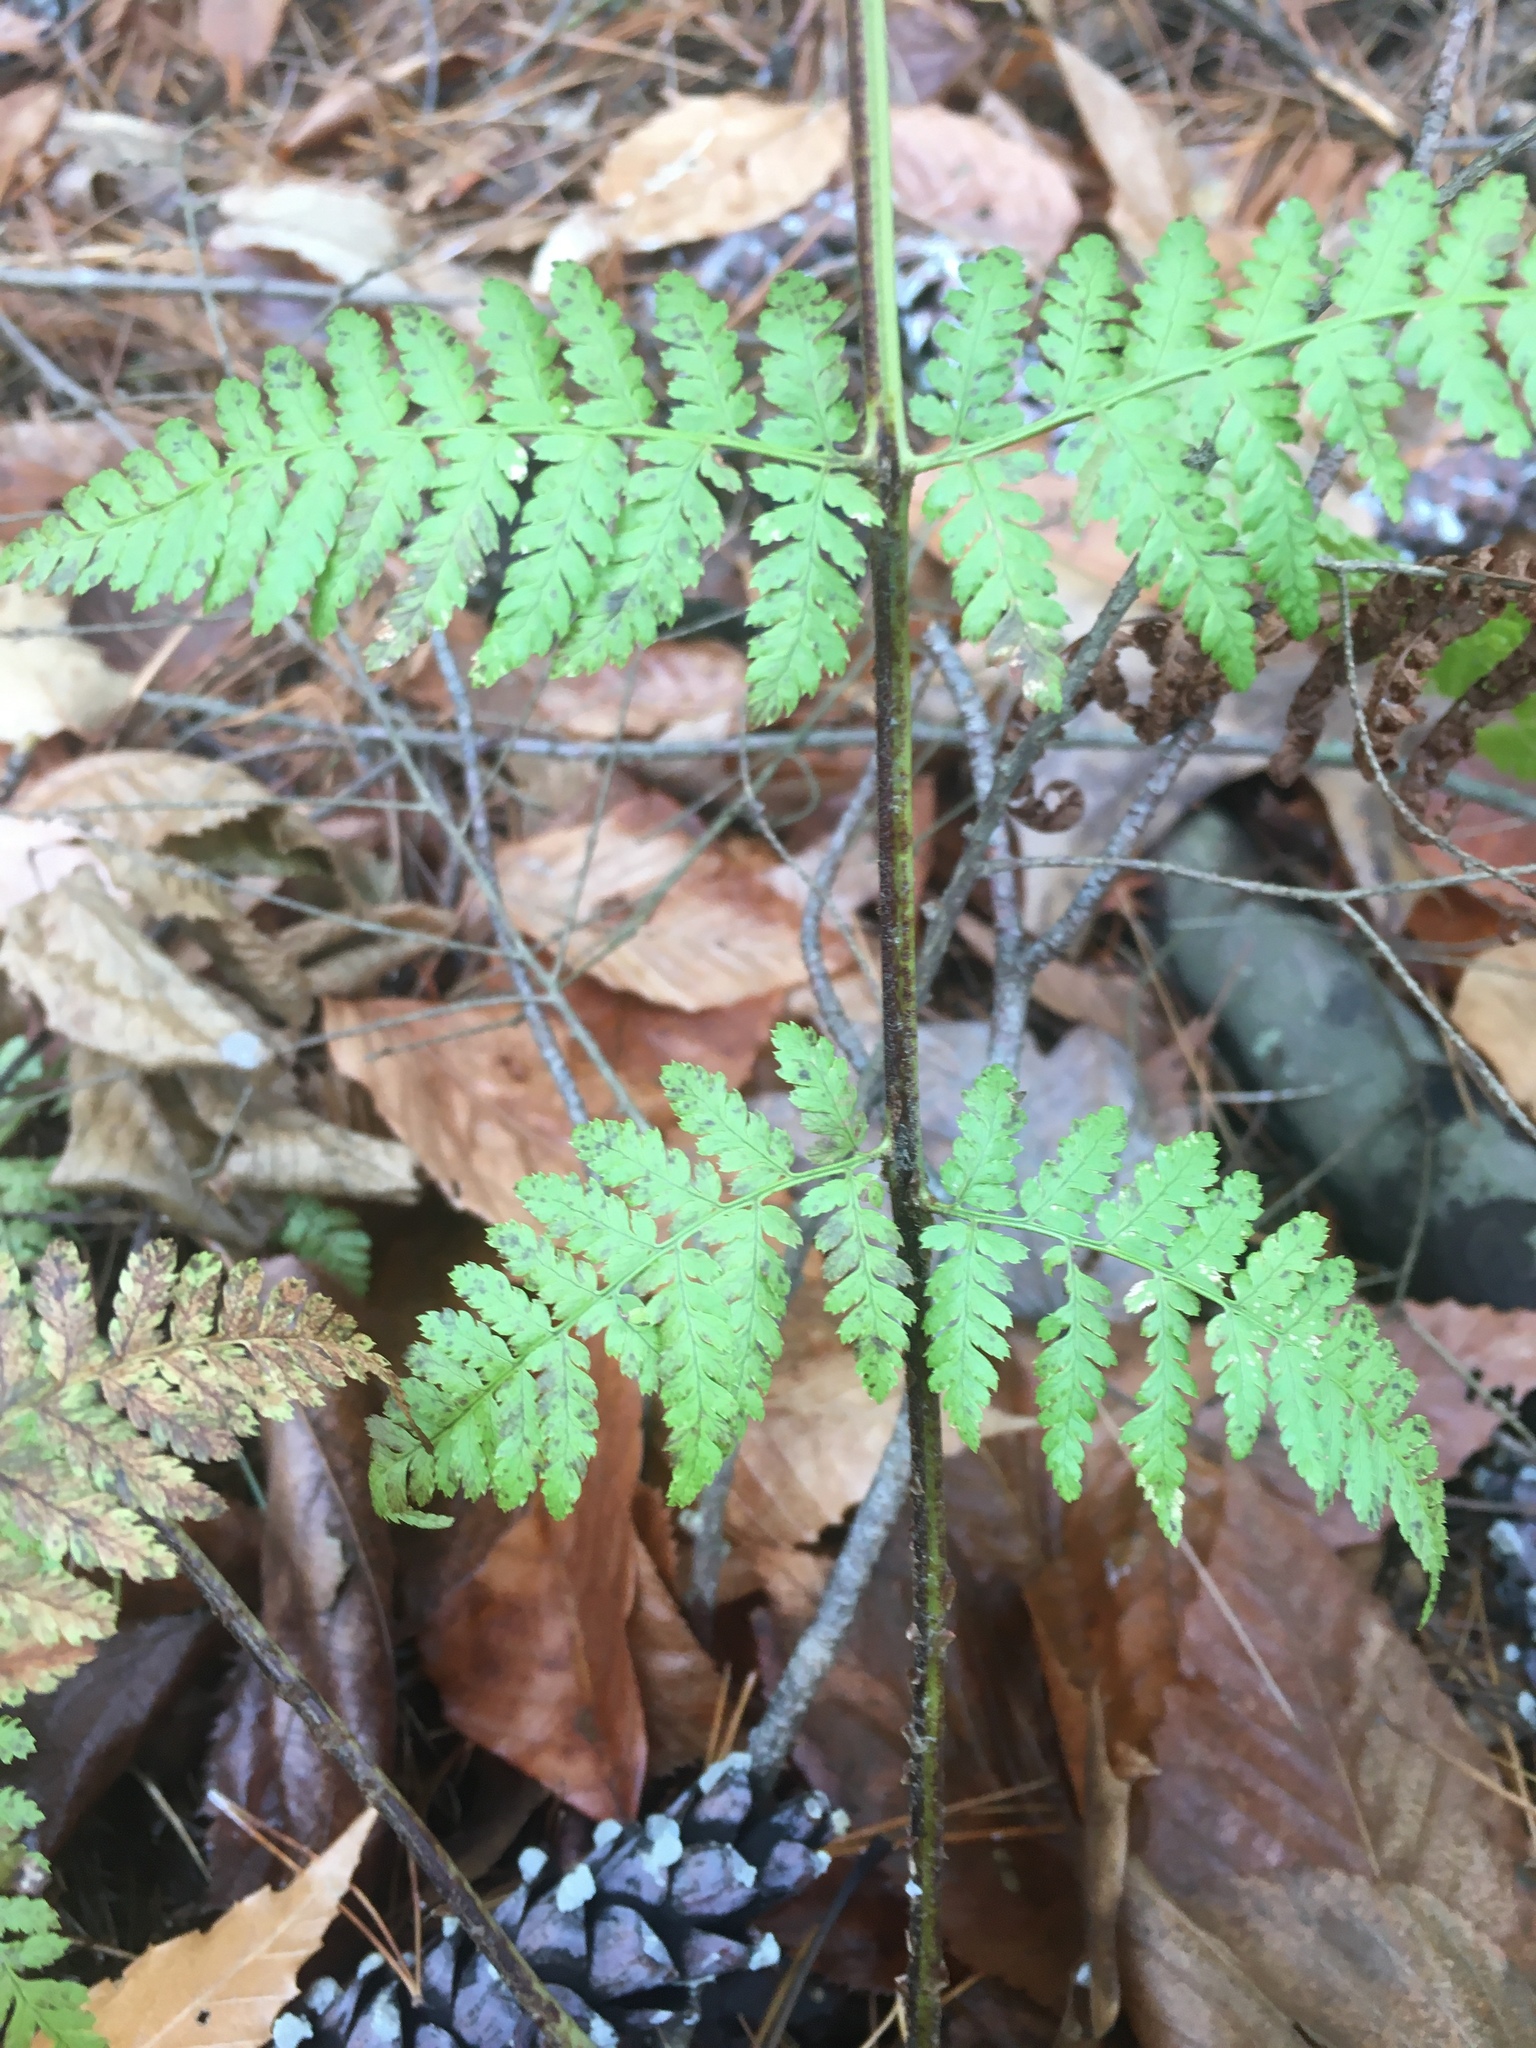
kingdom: Plantae
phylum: Tracheophyta
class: Polypodiopsida
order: Polypodiales
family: Dryopteridaceae
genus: Dryopteris
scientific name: Dryopteris intermedia
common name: Evergreen wood fern
